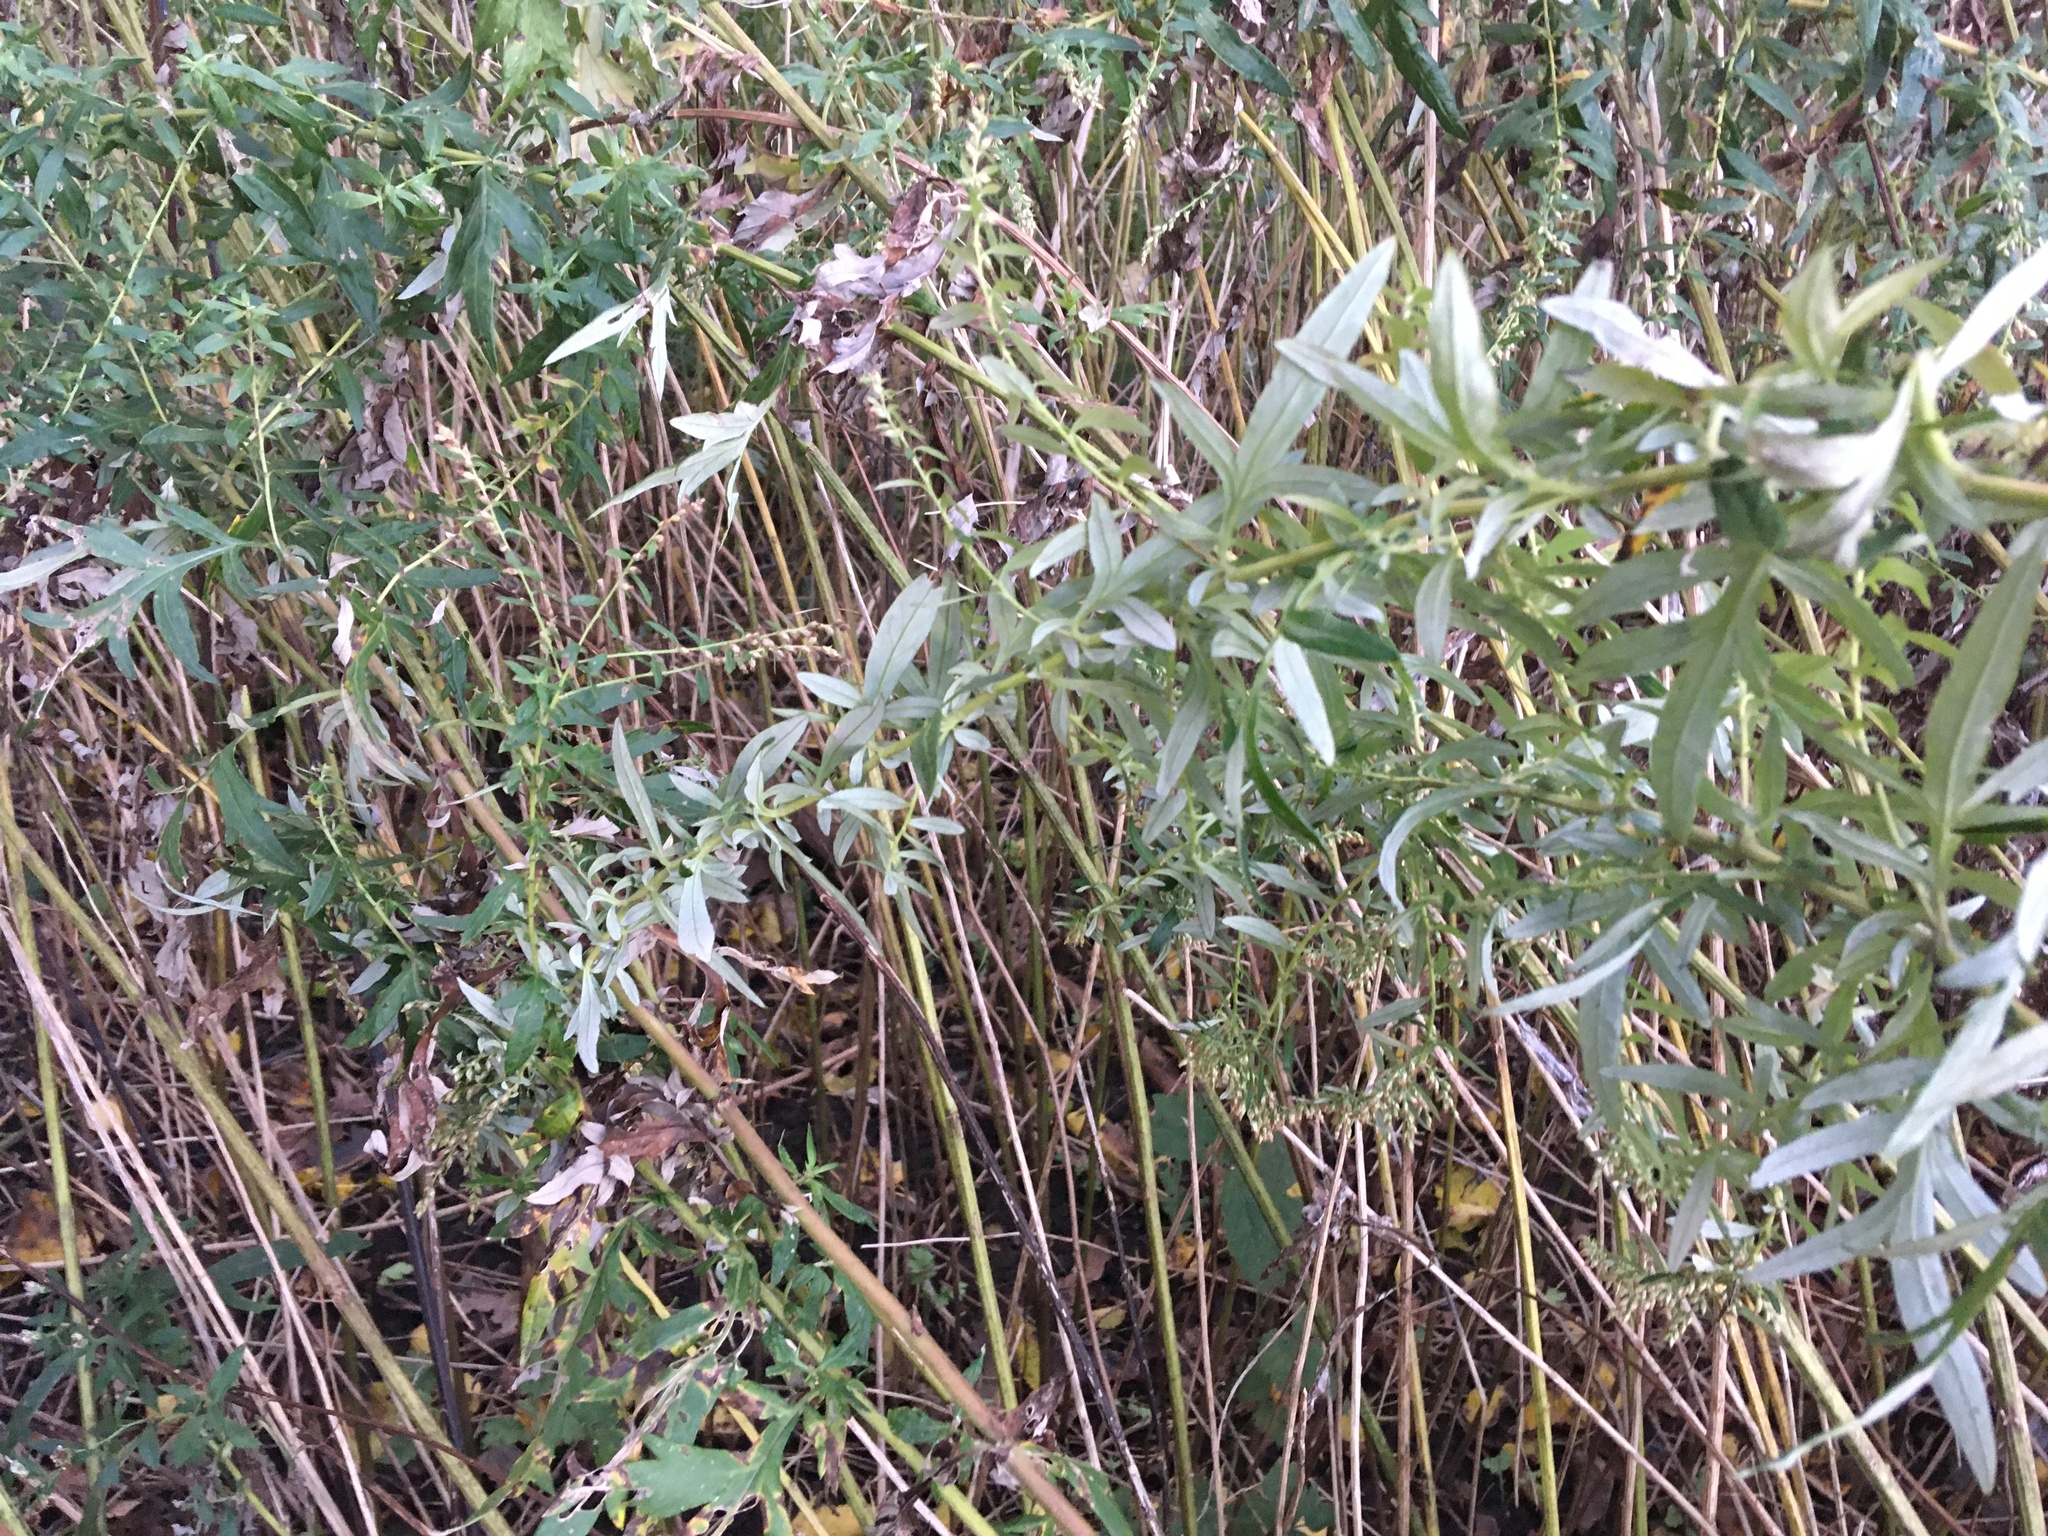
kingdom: Plantae
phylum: Tracheophyta
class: Magnoliopsida
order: Asterales
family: Asteraceae
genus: Artemisia
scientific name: Artemisia vulgaris
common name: Mugwort
